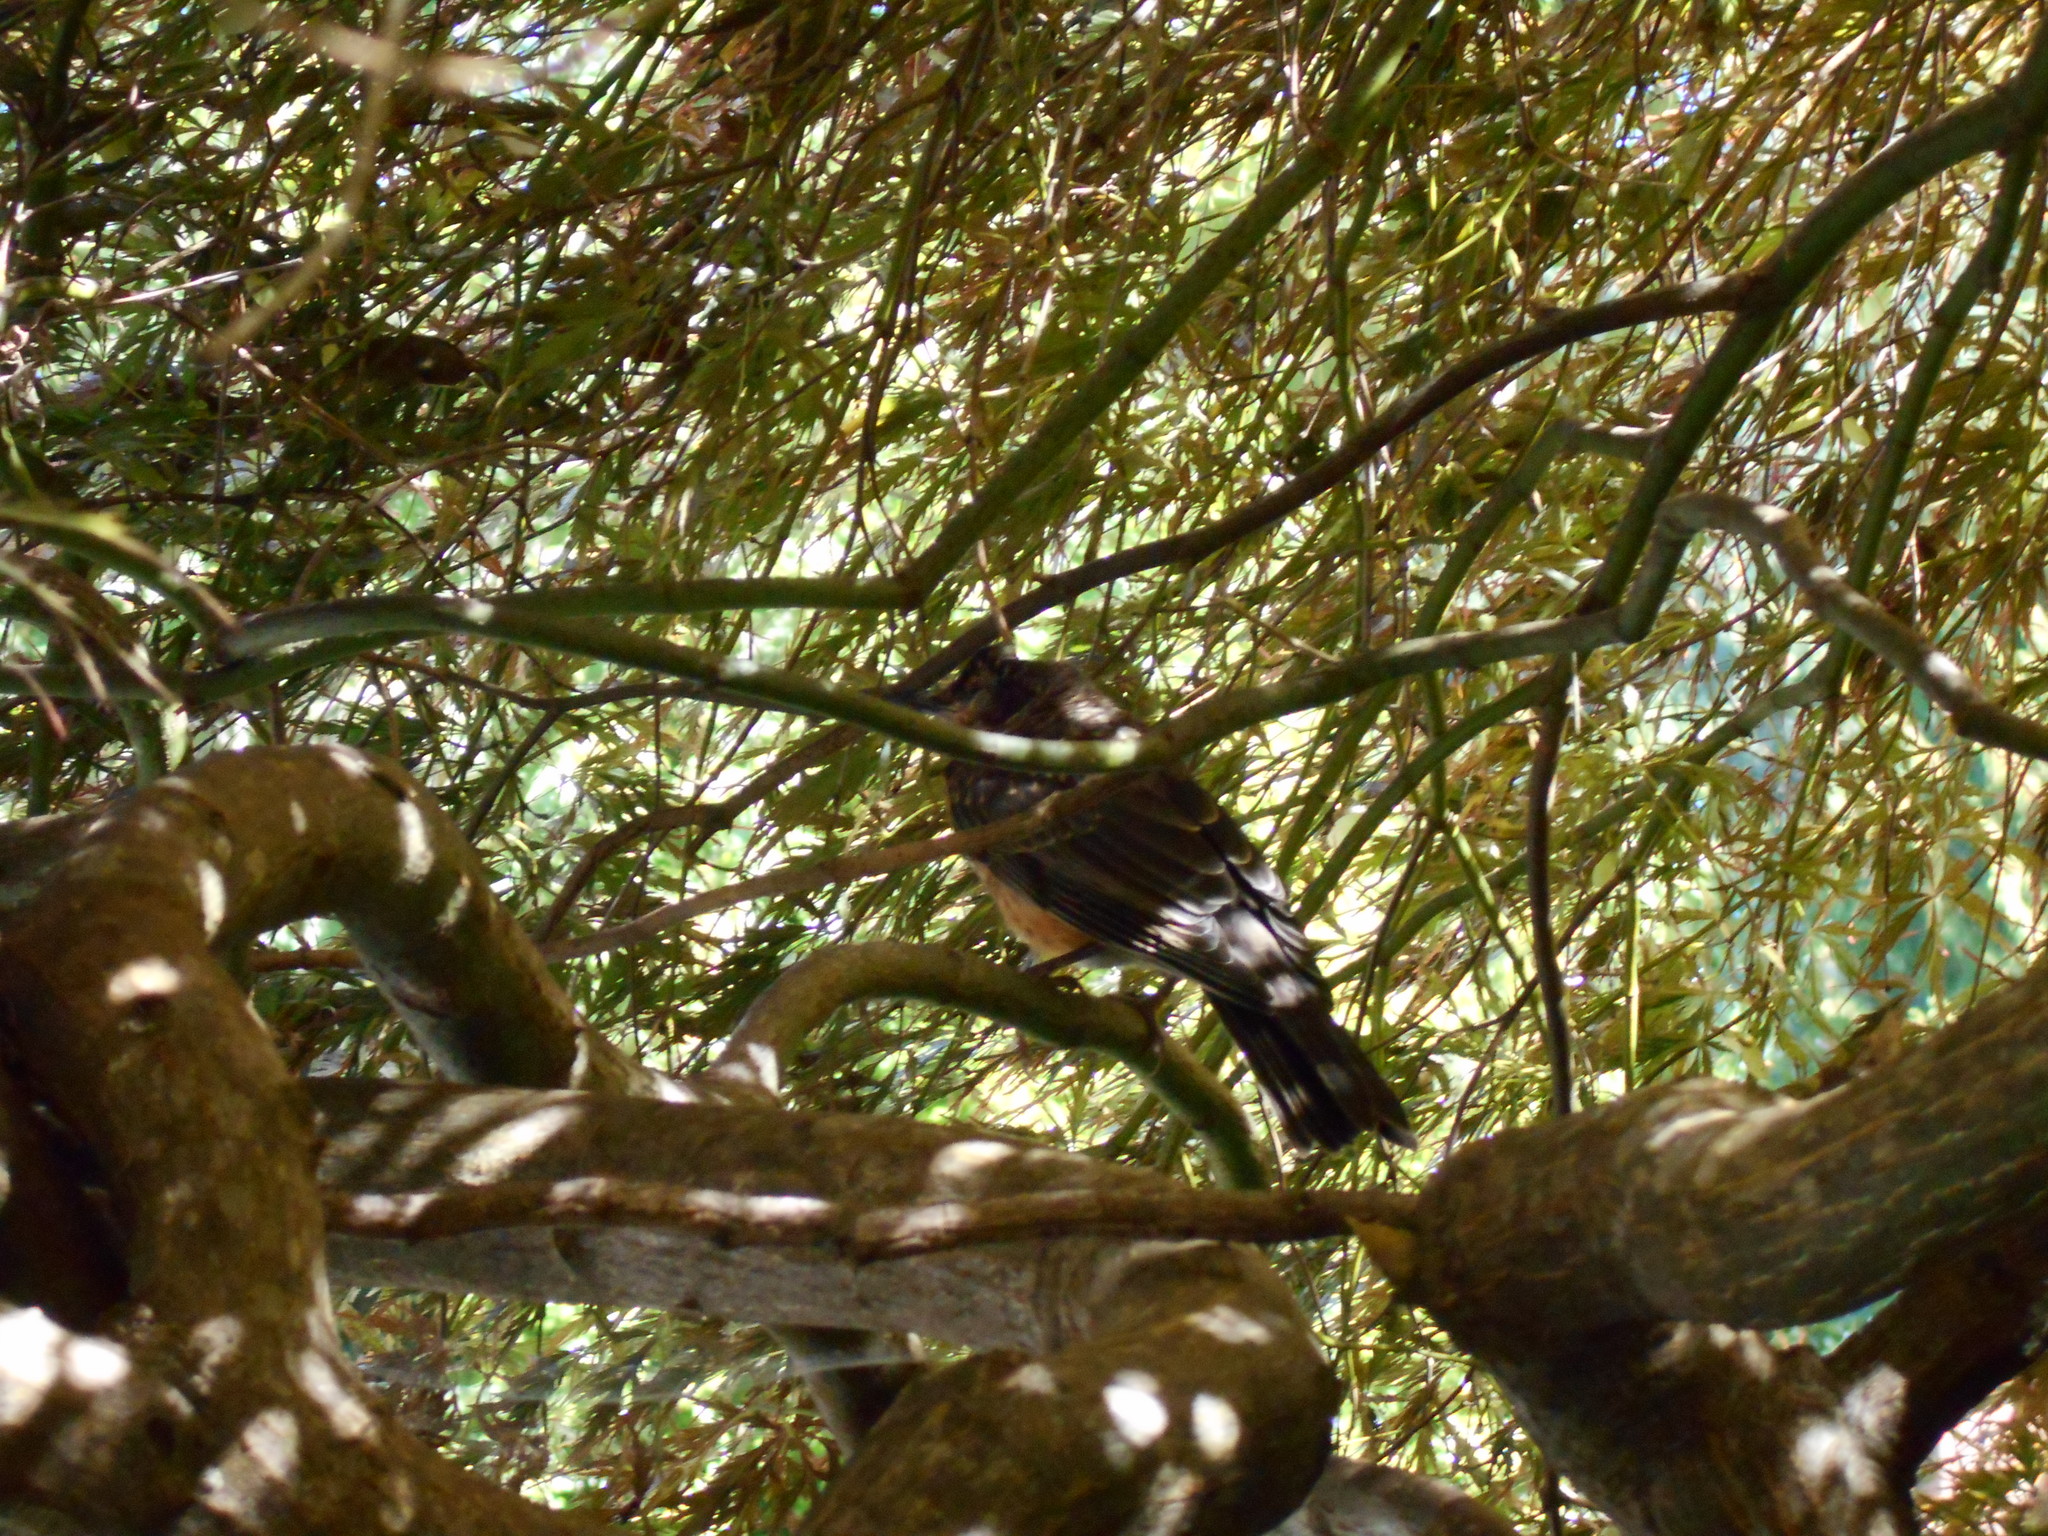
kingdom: Animalia
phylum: Chordata
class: Aves
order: Passeriformes
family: Turdidae
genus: Turdus
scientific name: Turdus migratorius
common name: American robin
